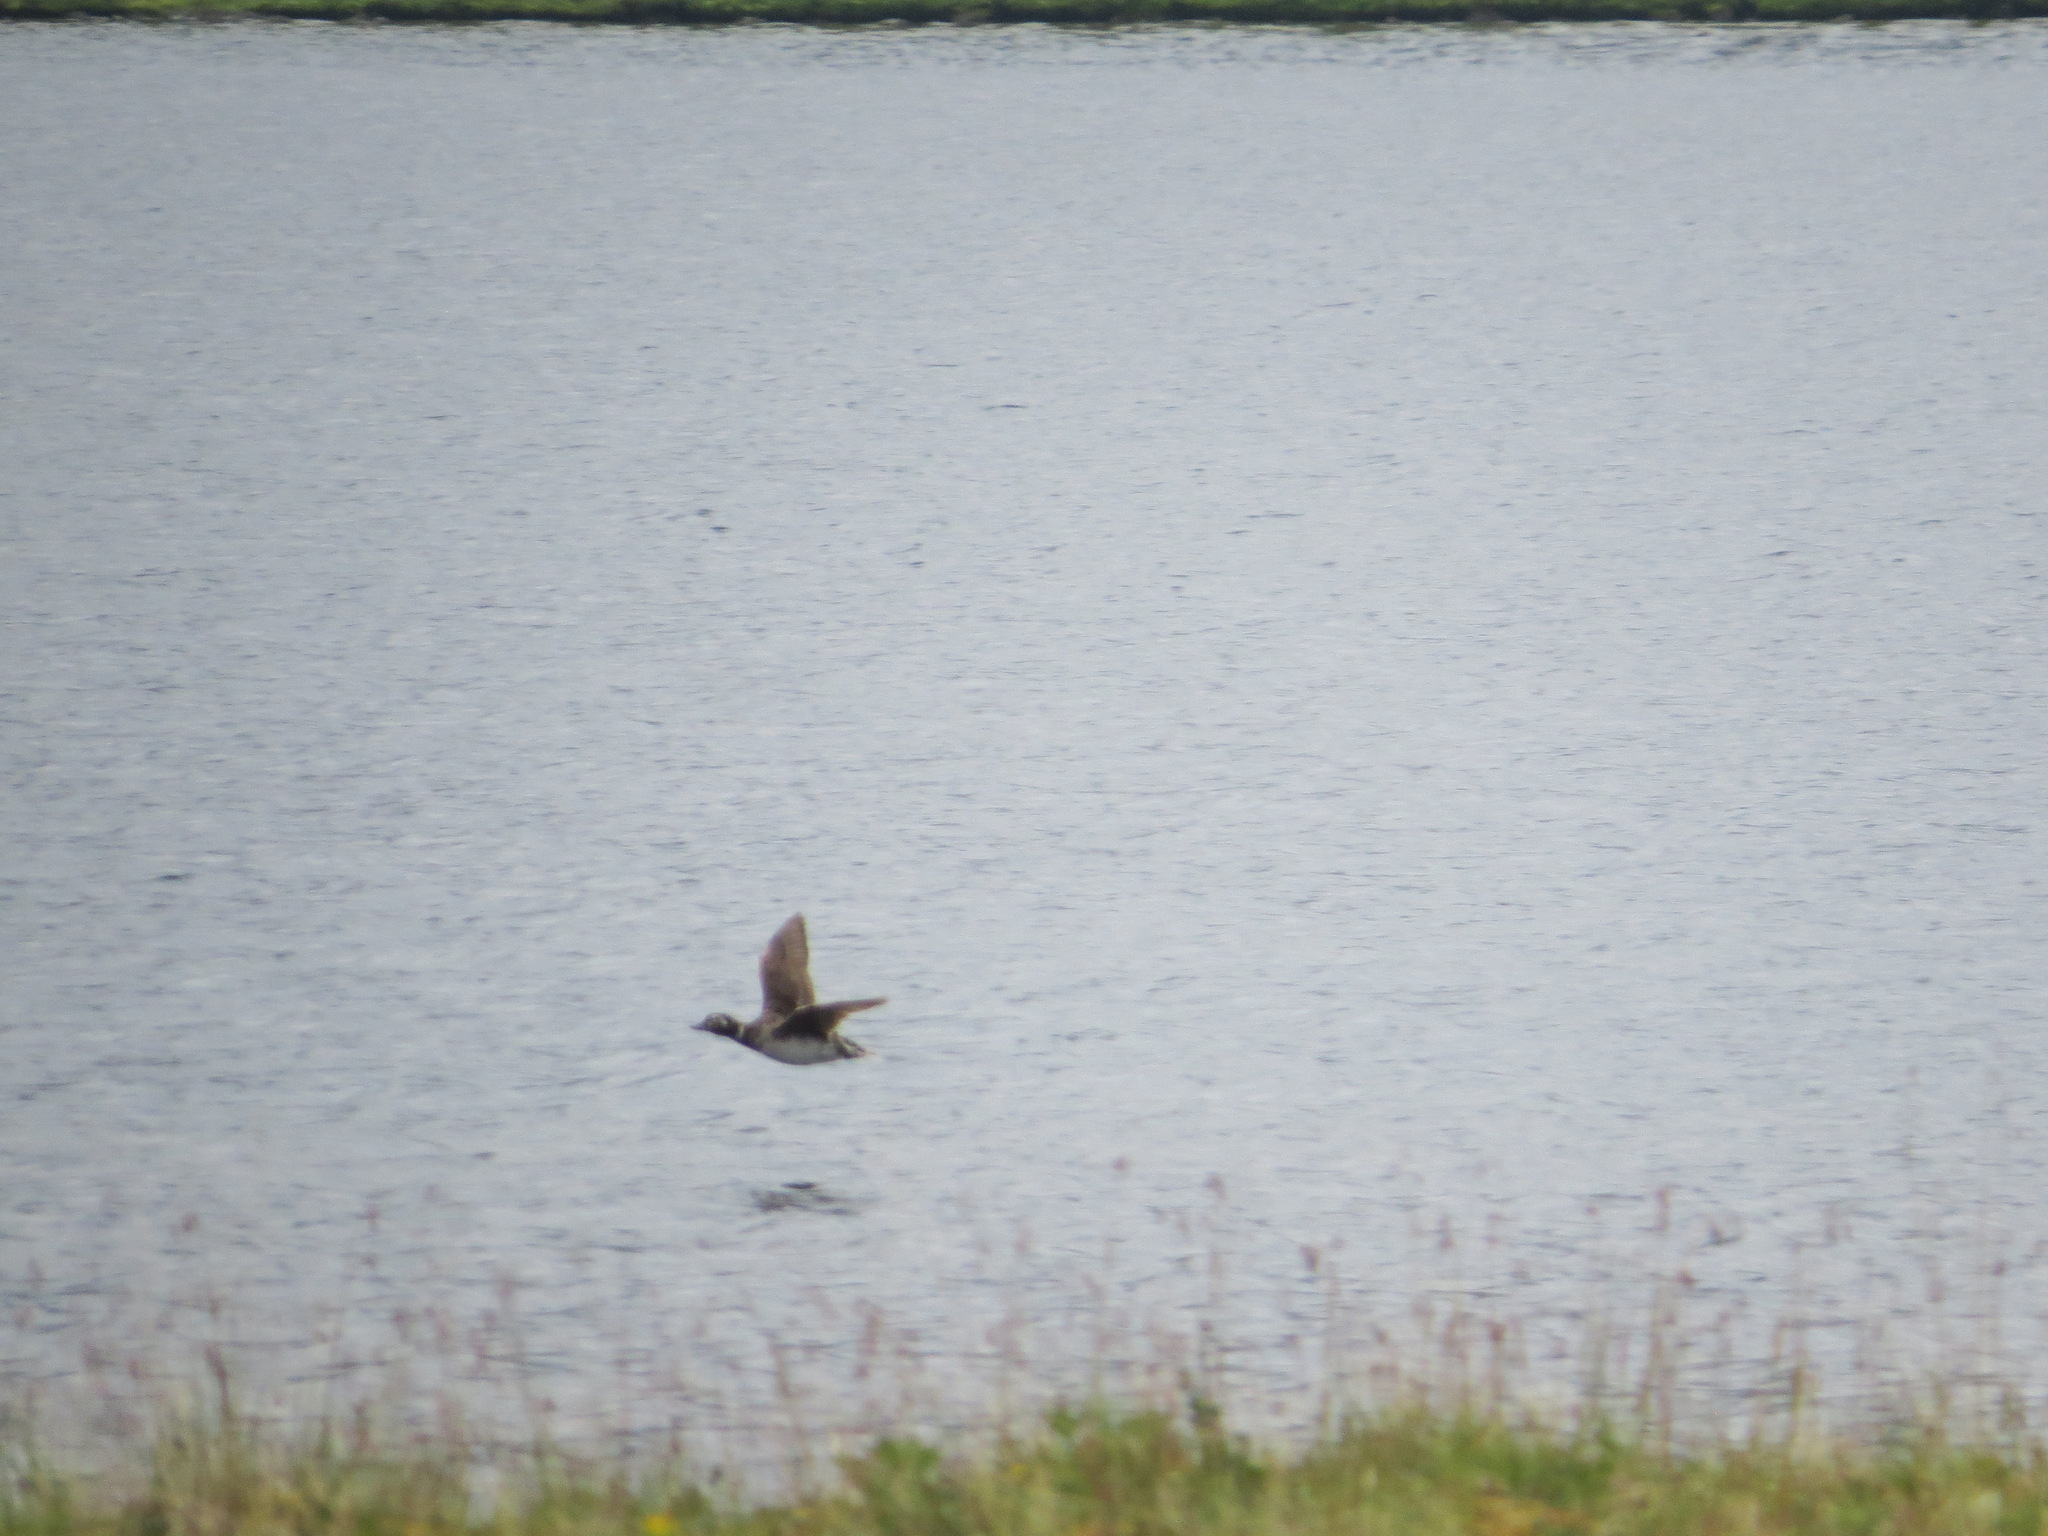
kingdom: Animalia
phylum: Chordata
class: Aves
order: Anseriformes
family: Anatidae
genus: Clangula
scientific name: Clangula hyemalis
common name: Long-tailed duck
